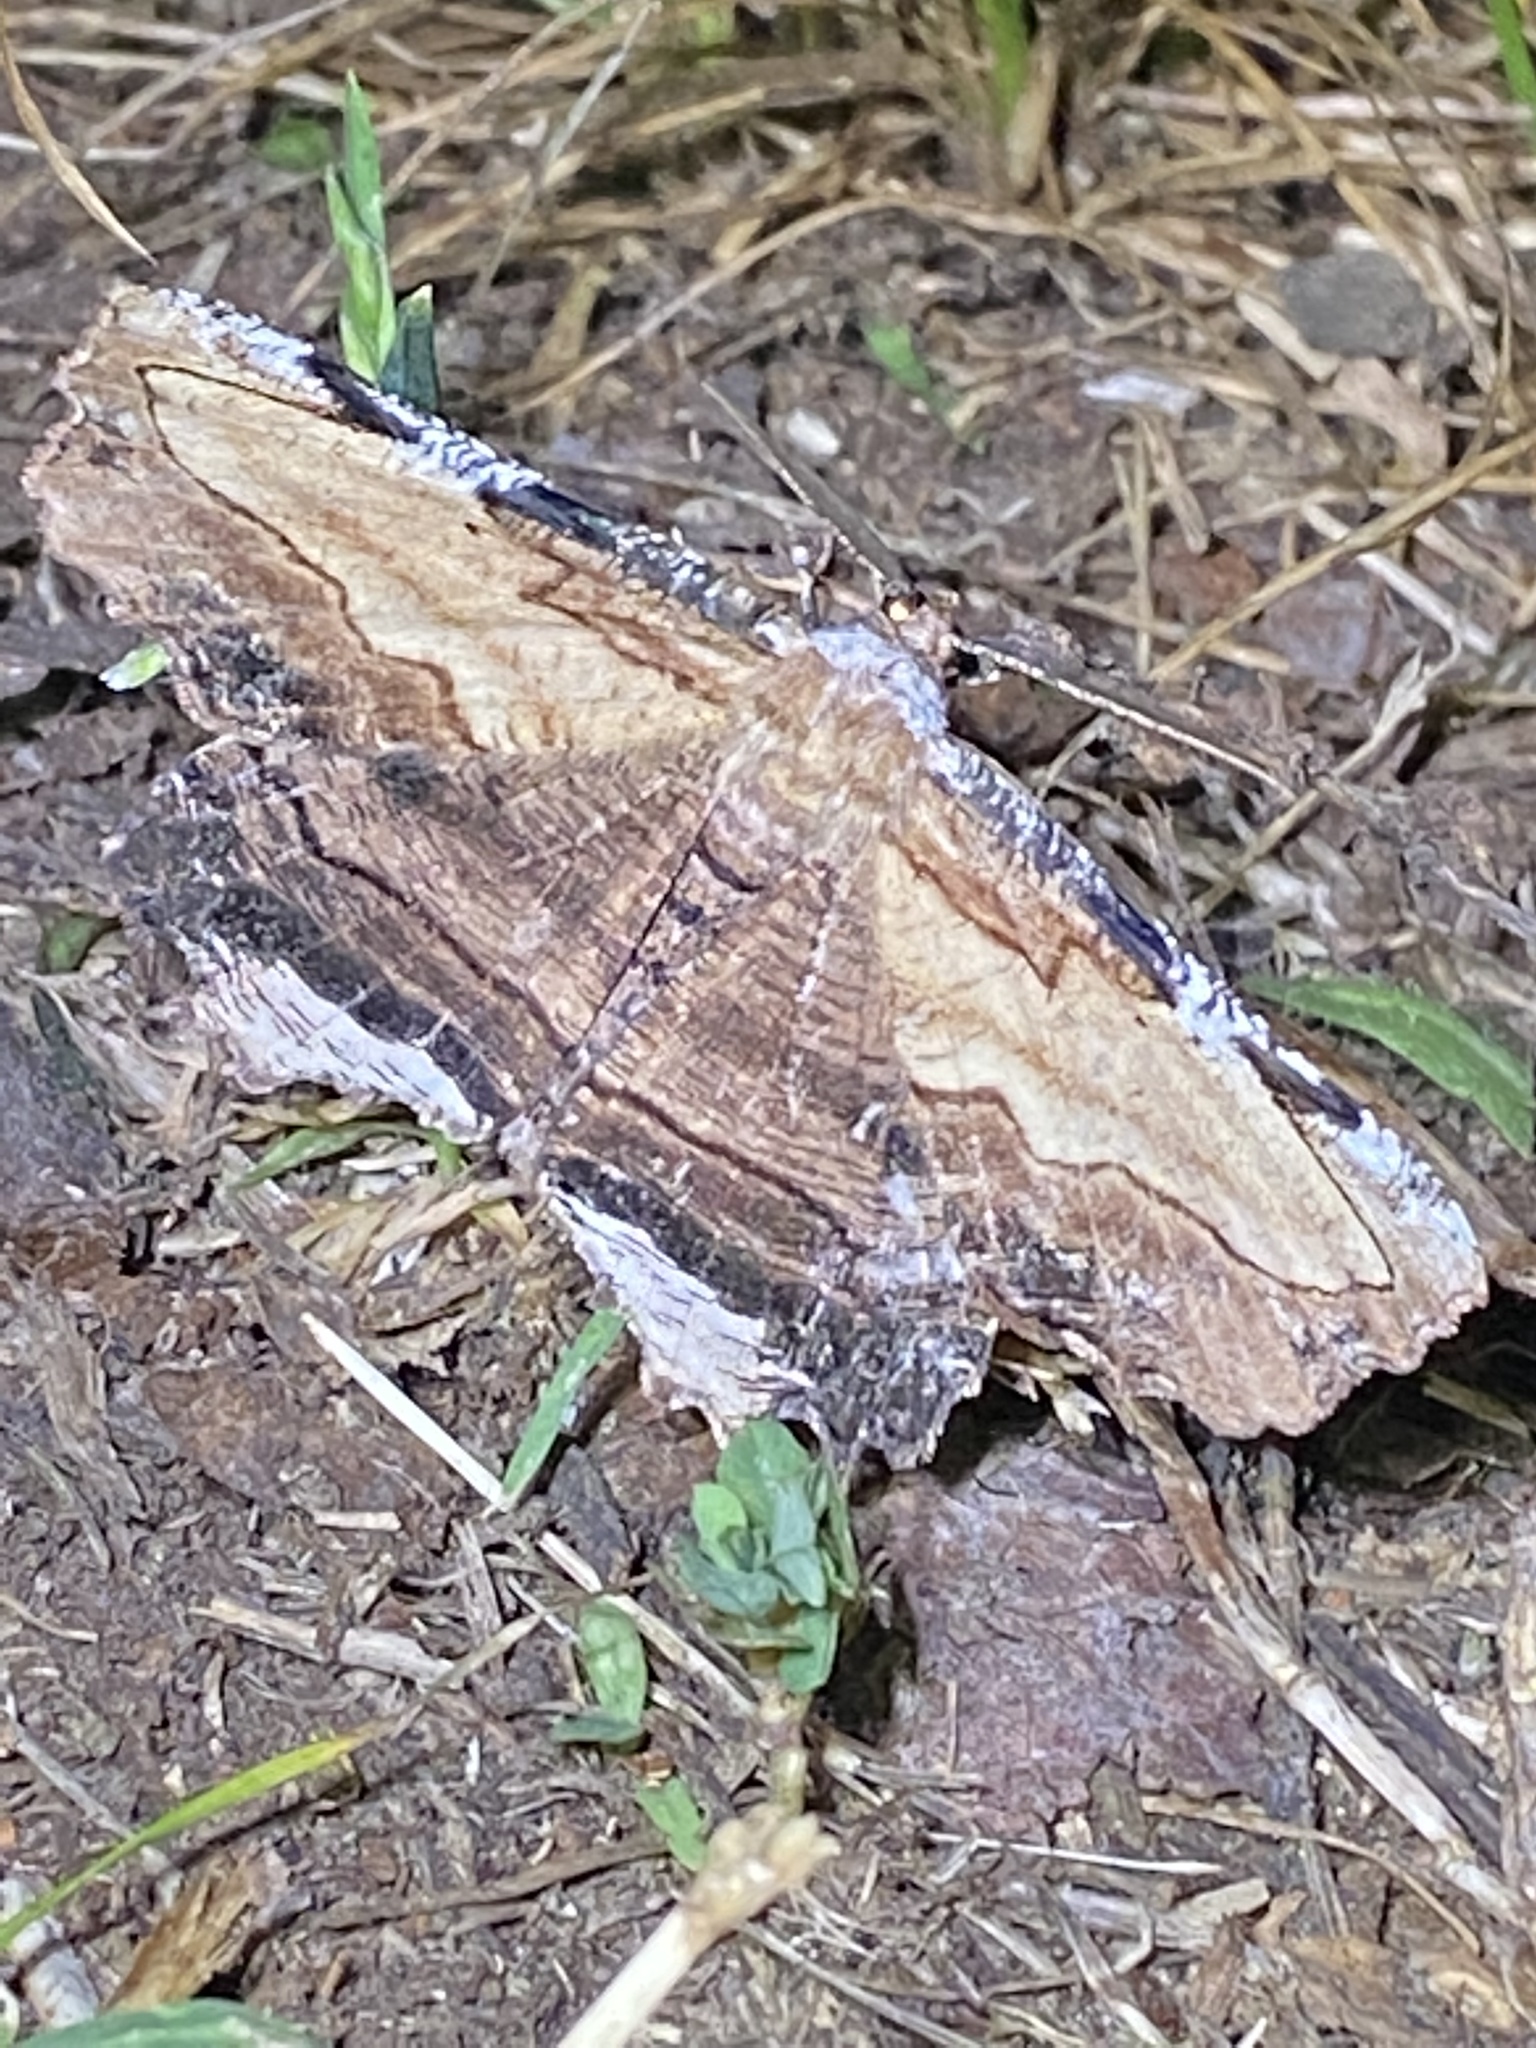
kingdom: Animalia
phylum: Arthropoda
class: Insecta
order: Lepidoptera
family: Geometridae
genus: Lytrosis
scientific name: Lytrosis heitzmanorum
